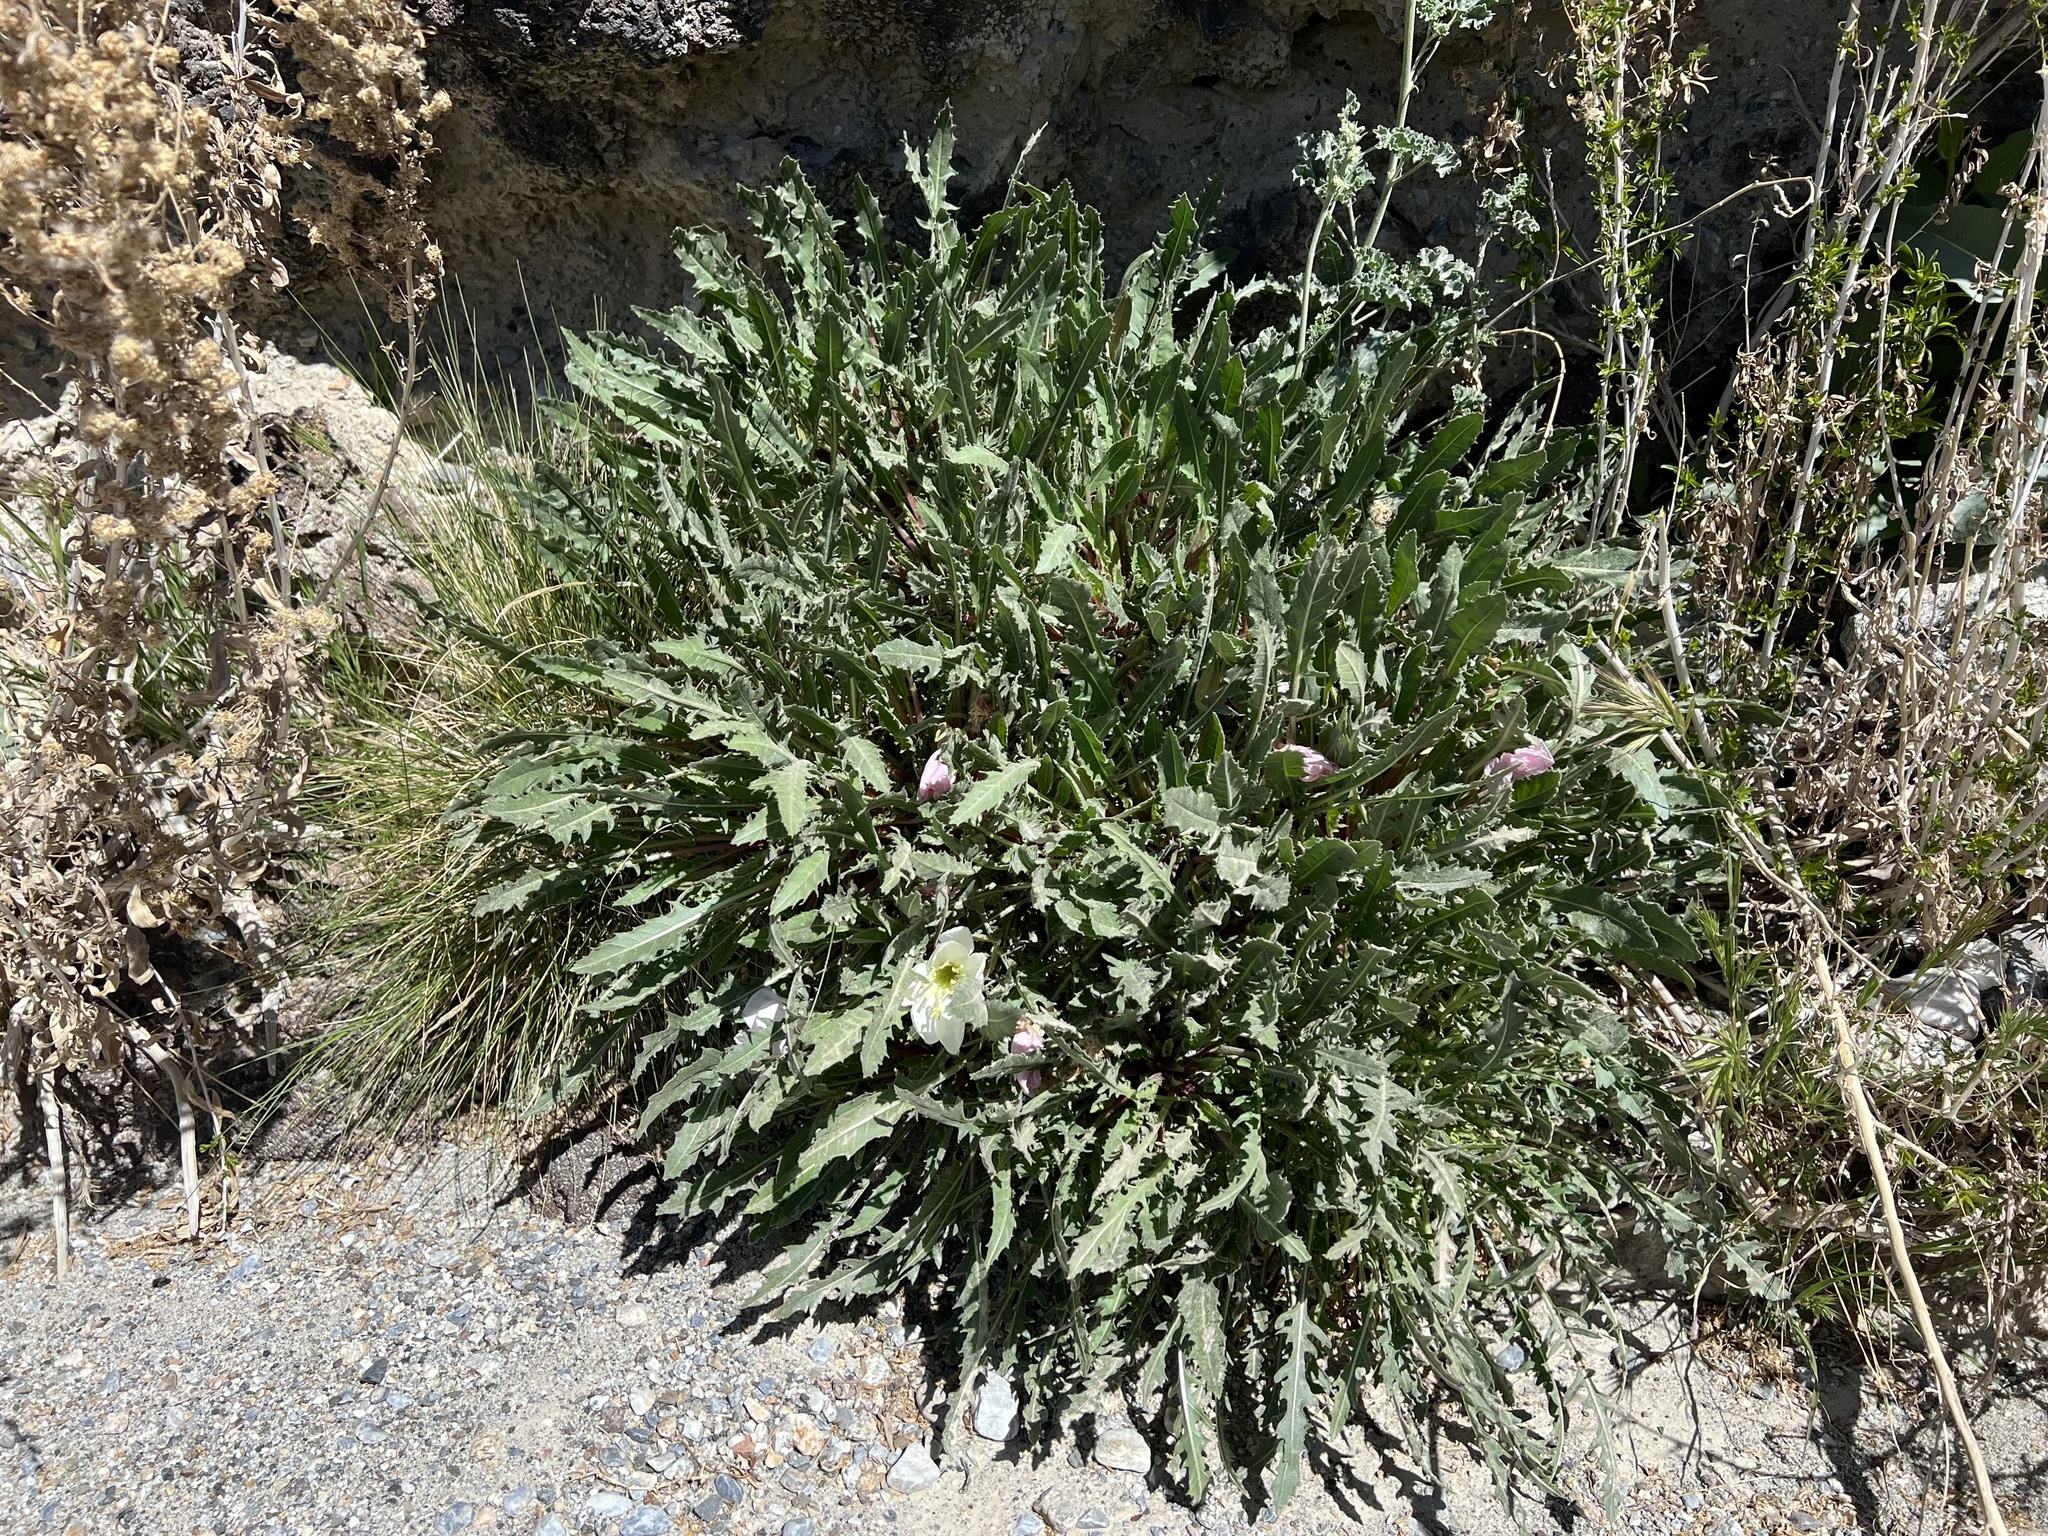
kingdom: Plantae
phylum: Tracheophyta
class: Magnoliopsida
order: Myrtales
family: Onagraceae
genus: Oenothera
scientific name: Oenothera cespitosa
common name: Tufted evening-primrose
